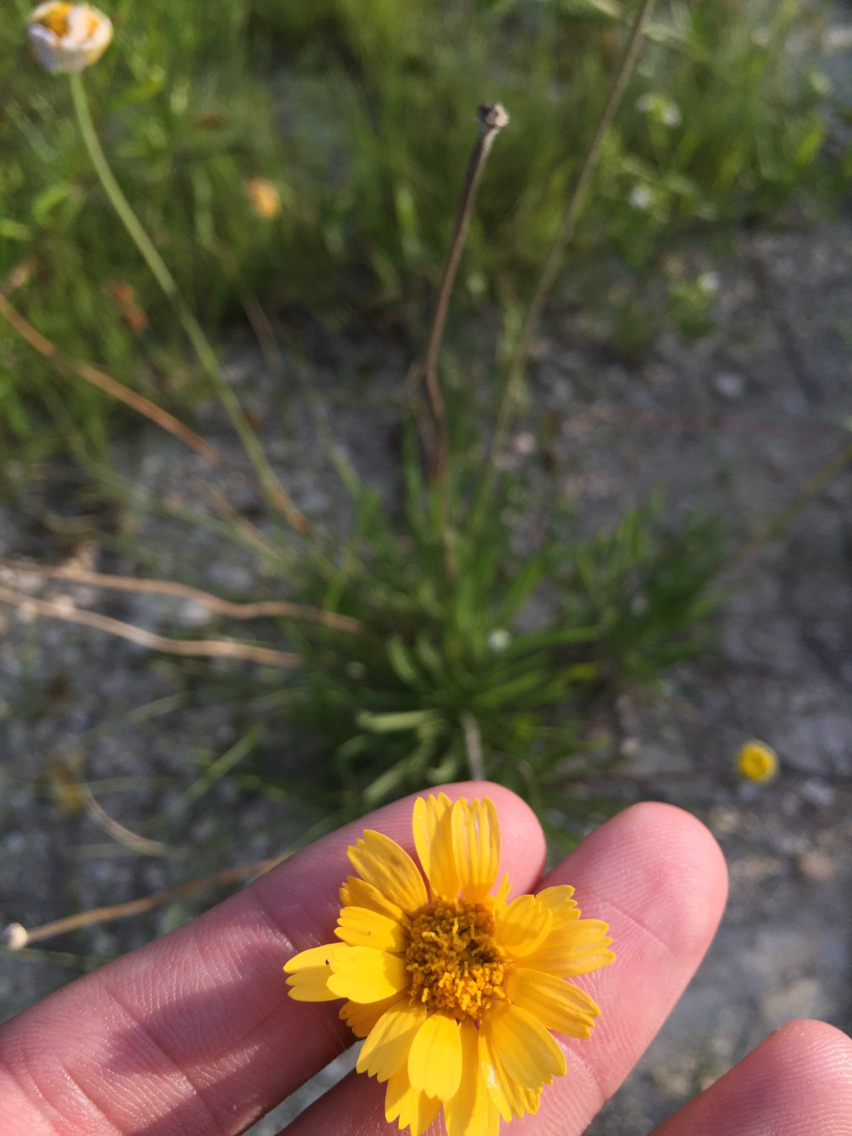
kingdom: Plantae
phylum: Tracheophyta
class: Magnoliopsida
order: Asterales
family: Asteraceae
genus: Tetraneuris
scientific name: Tetraneuris scaposa
